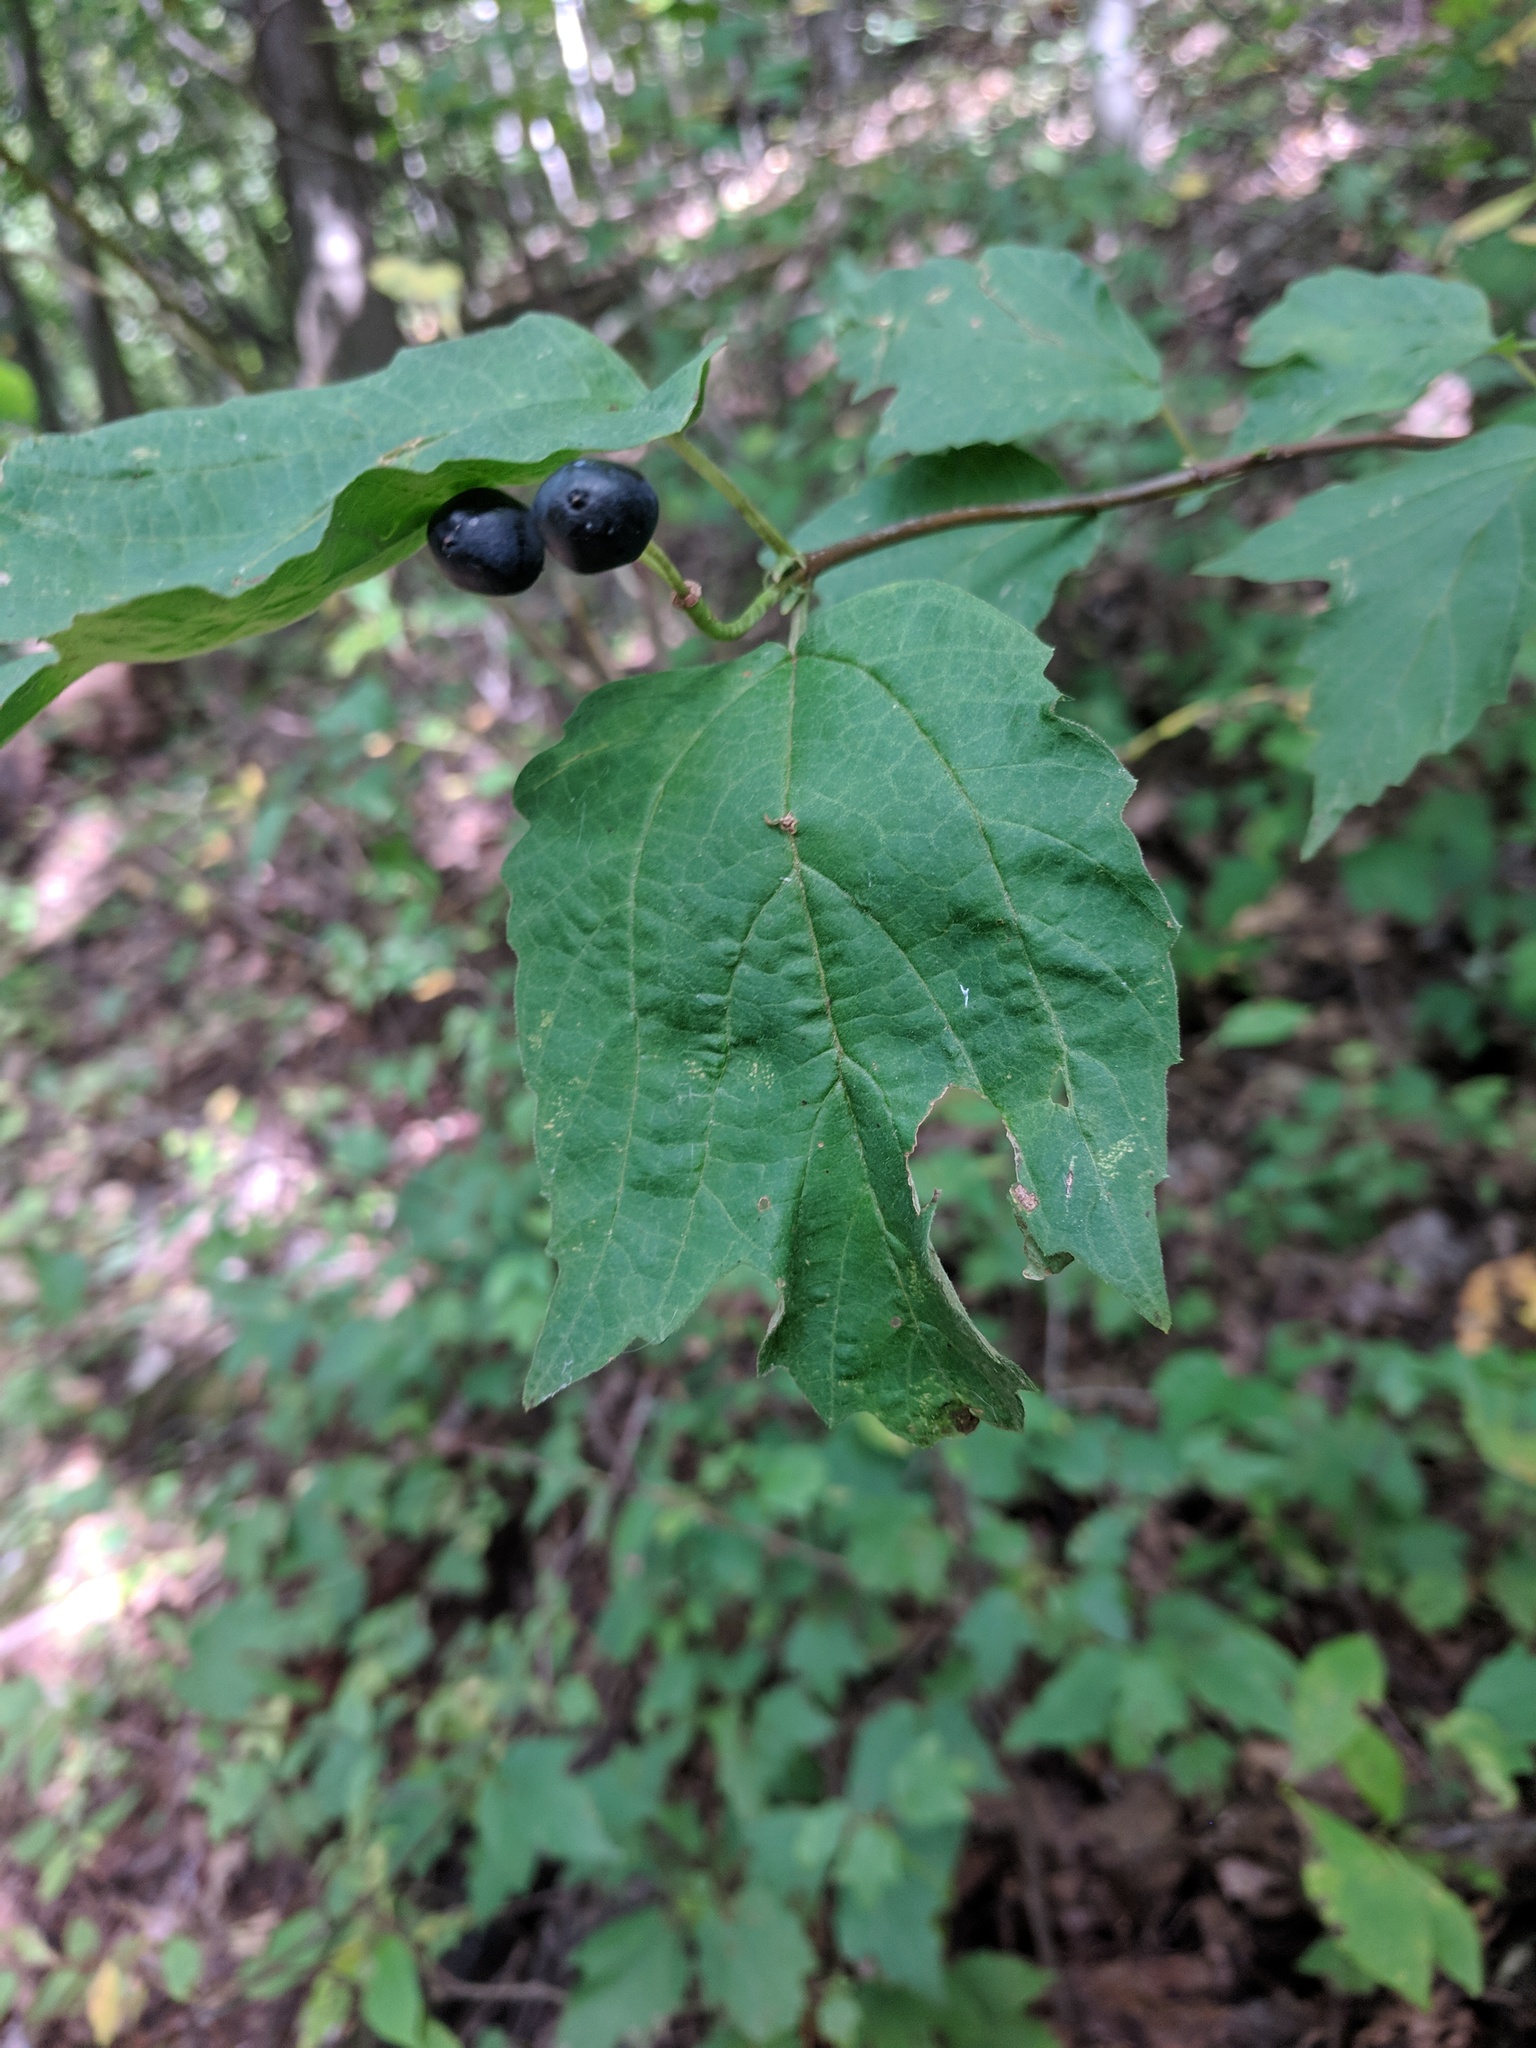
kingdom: Plantae
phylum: Tracheophyta
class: Magnoliopsida
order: Dipsacales
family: Viburnaceae
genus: Viburnum
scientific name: Viburnum acerifolium
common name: Dockmackie
